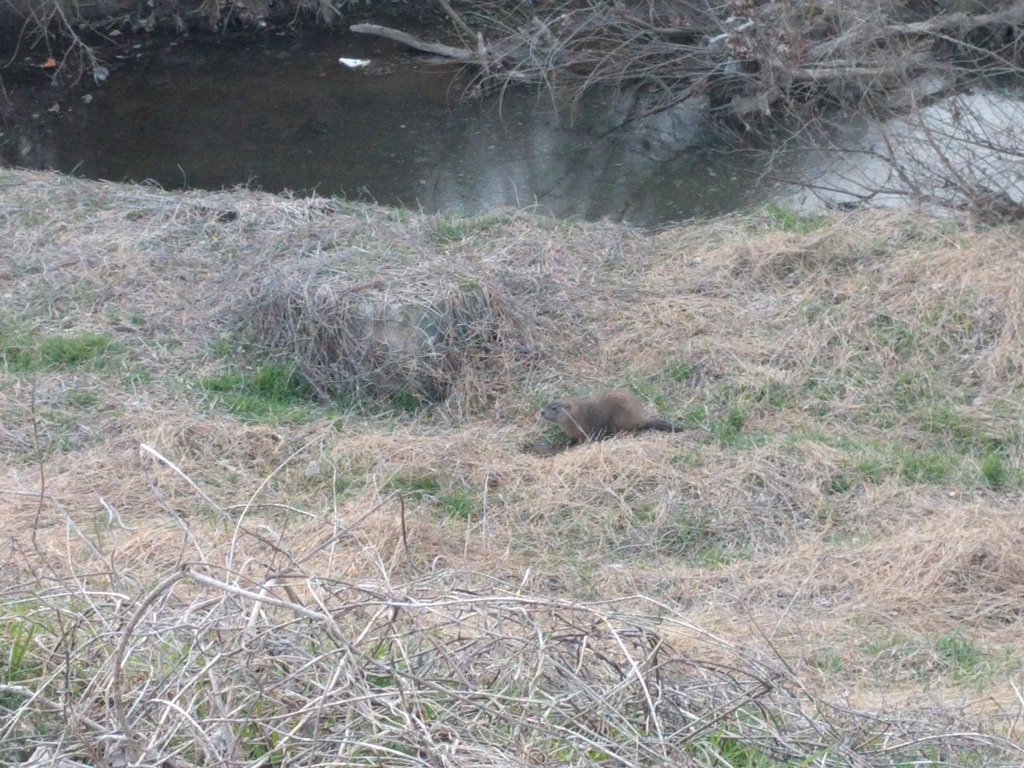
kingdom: Animalia
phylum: Chordata
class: Mammalia
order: Rodentia
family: Sciuridae
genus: Marmota
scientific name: Marmota monax
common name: Groundhog
